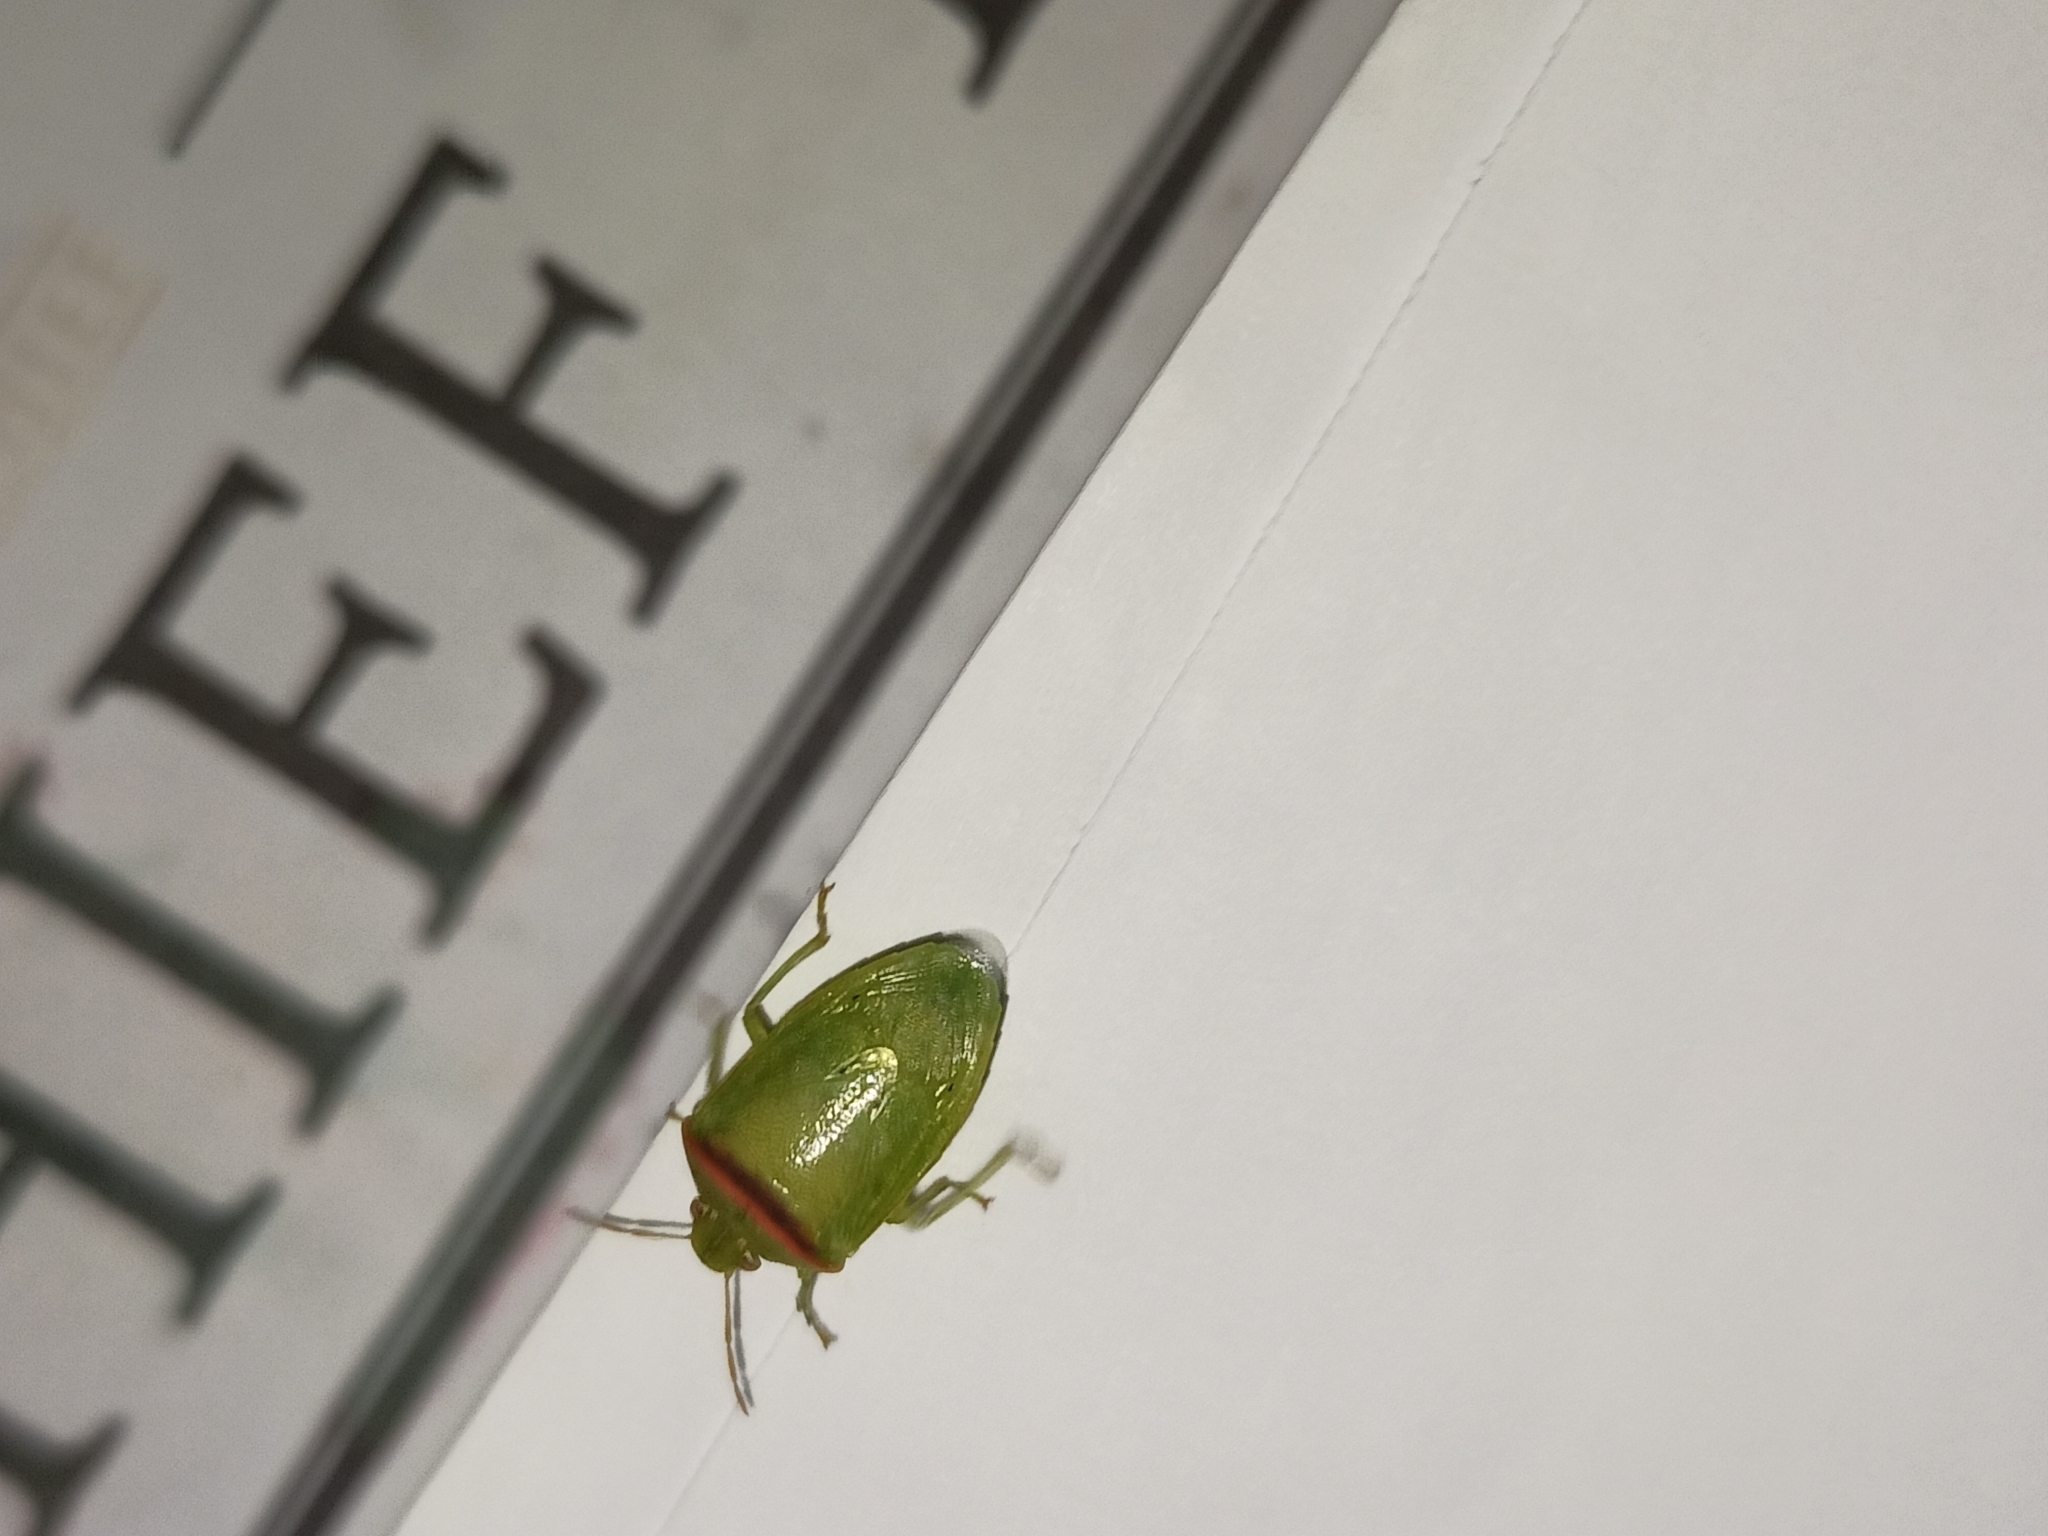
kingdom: Animalia
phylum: Arthropoda
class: Insecta
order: Hemiptera
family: Pentatomidae
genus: Piezodorus
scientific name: Piezodorus hybneri
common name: Stink bug
